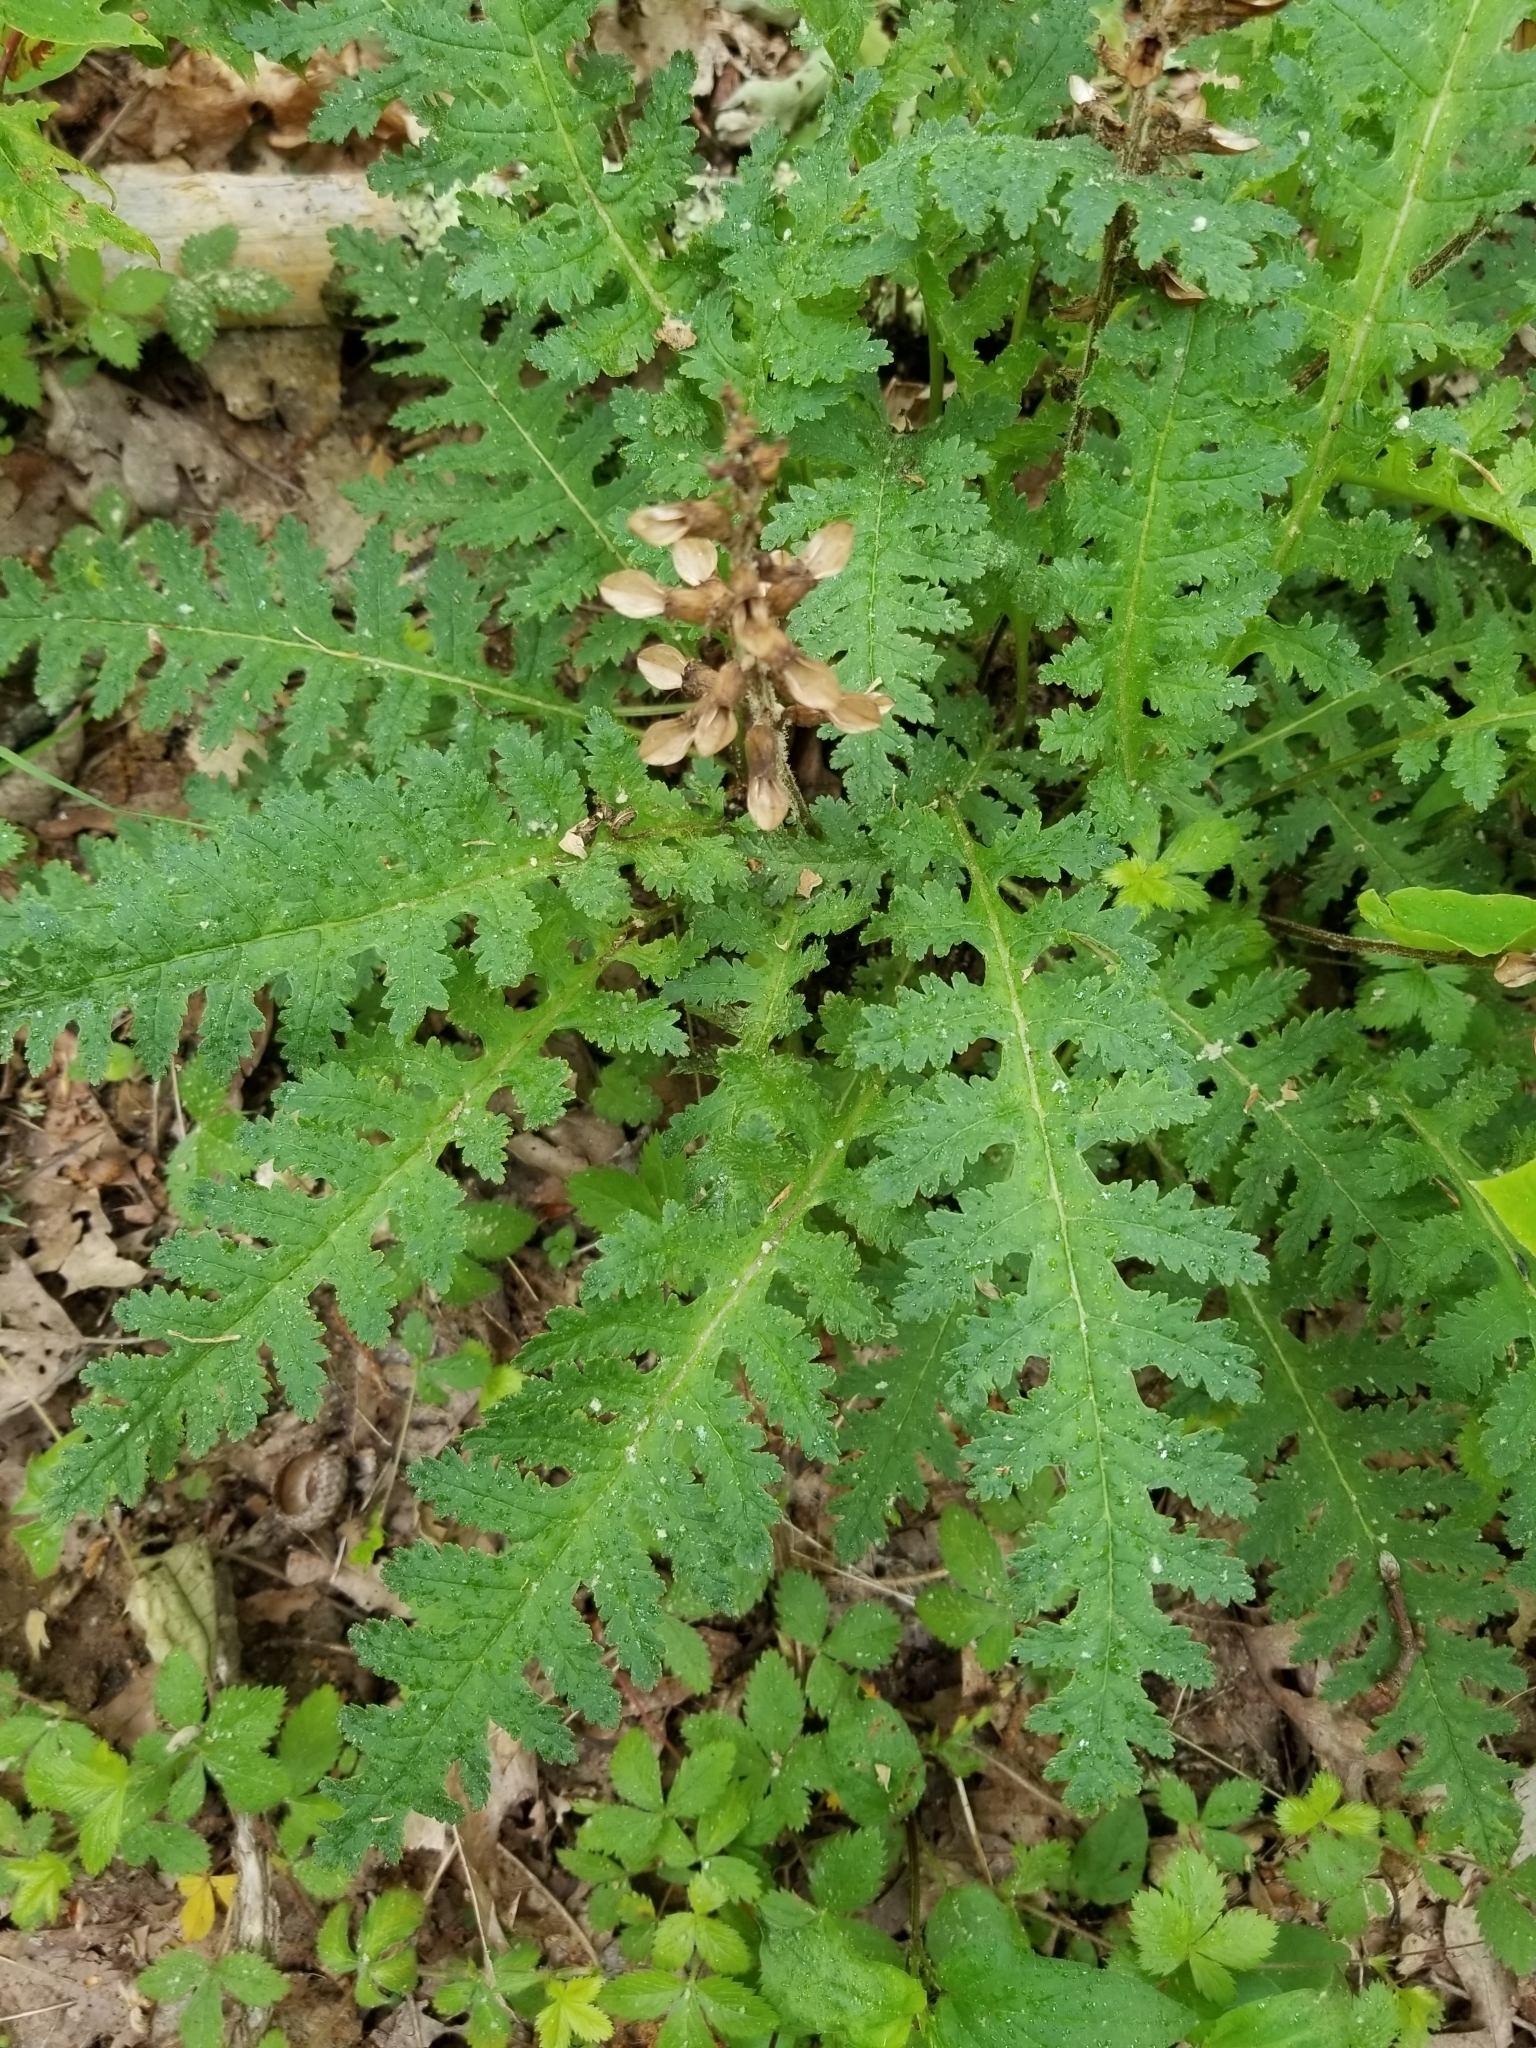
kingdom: Plantae
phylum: Tracheophyta
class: Magnoliopsida
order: Lamiales
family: Orobanchaceae
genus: Pedicularis
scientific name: Pedicularis canadensis
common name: Early lousewort
